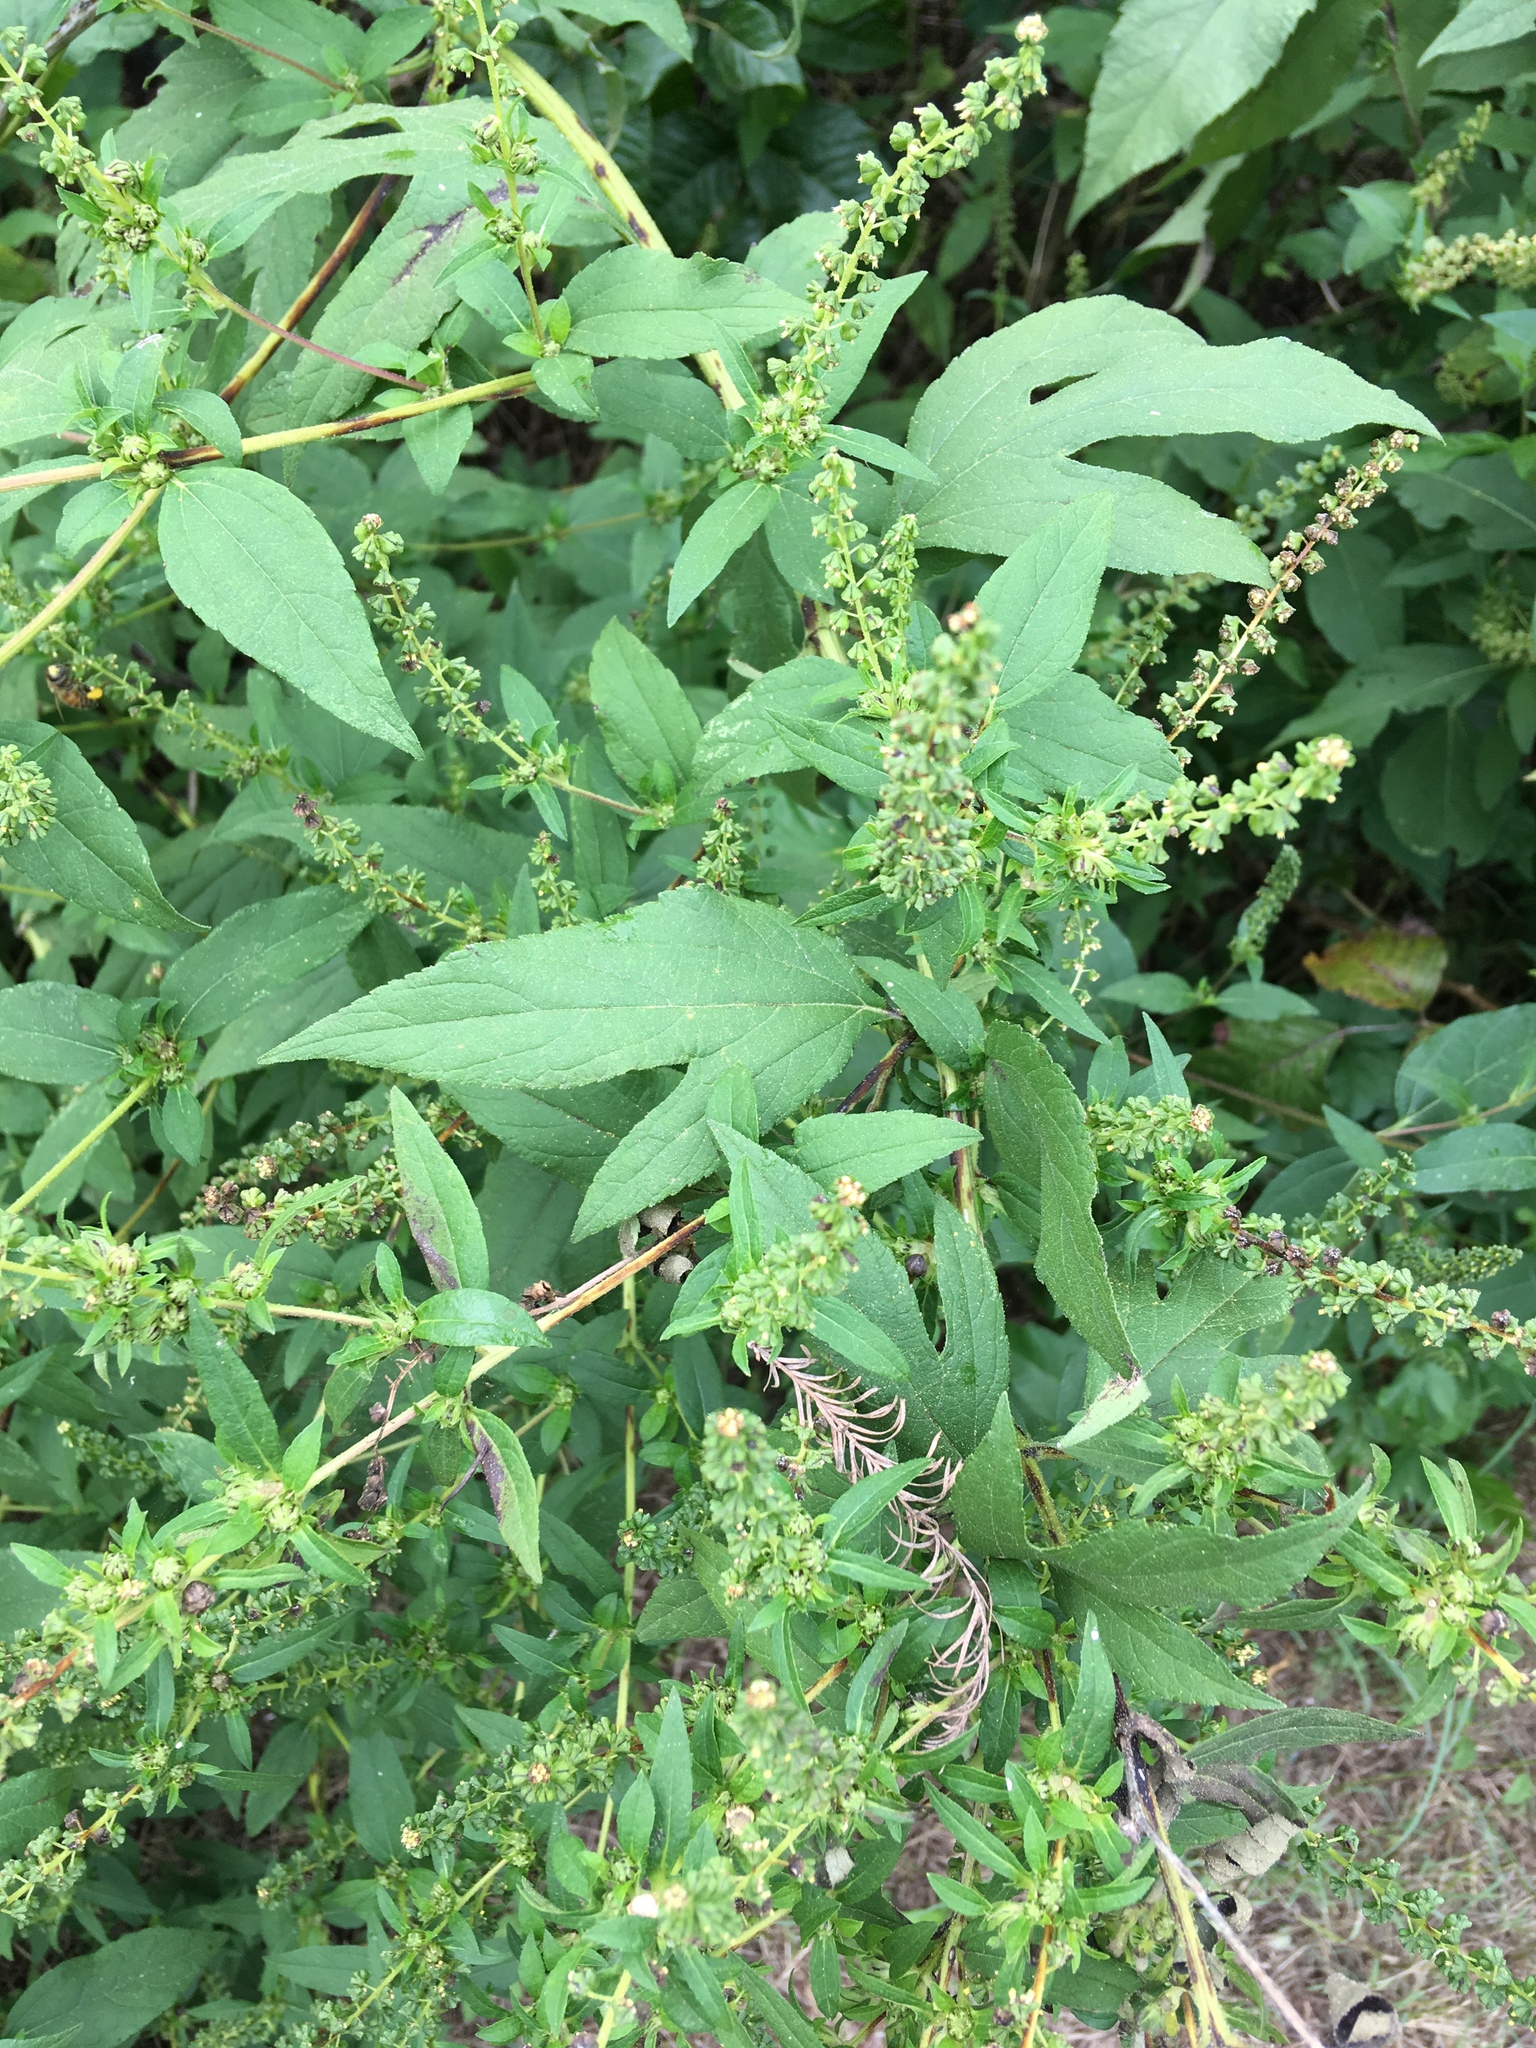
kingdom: Plantae
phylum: Tracheophyta
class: Magnoliopsida
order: Asterales
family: Asteraceae
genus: Ambrosia
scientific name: Ambrosia trifida
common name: Giant ragweed
